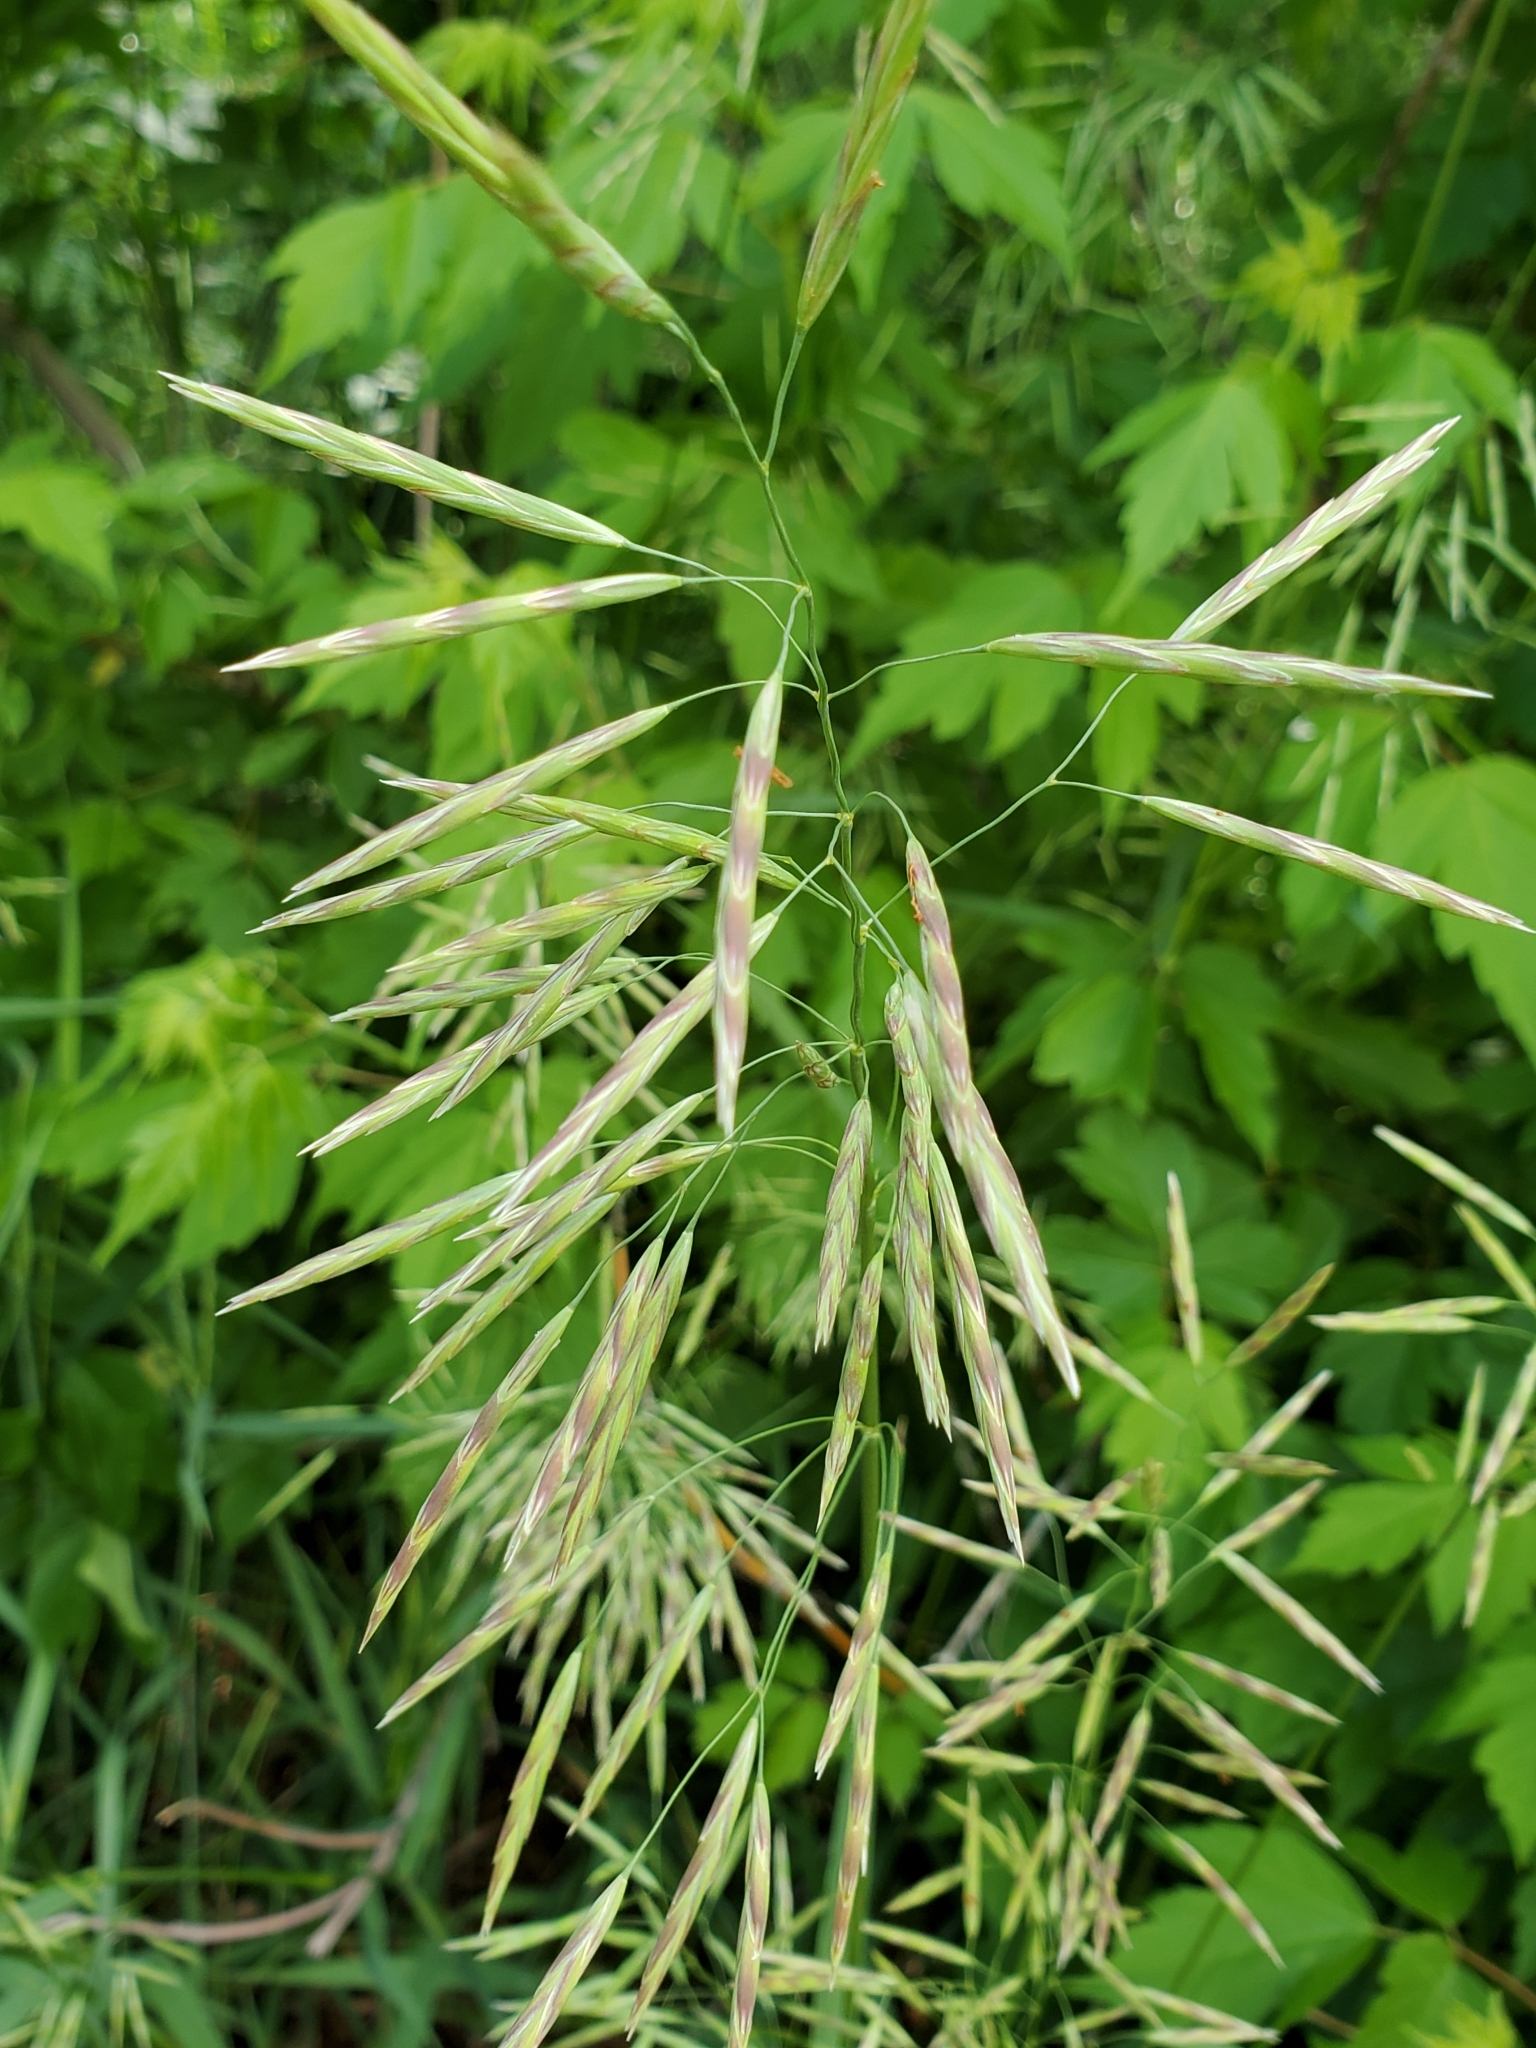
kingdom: Plantae
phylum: Tracheophyta
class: Liliopsida
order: Poales
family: Poaceae
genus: Bromus
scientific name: Bromus inermis
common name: Smooth brome
